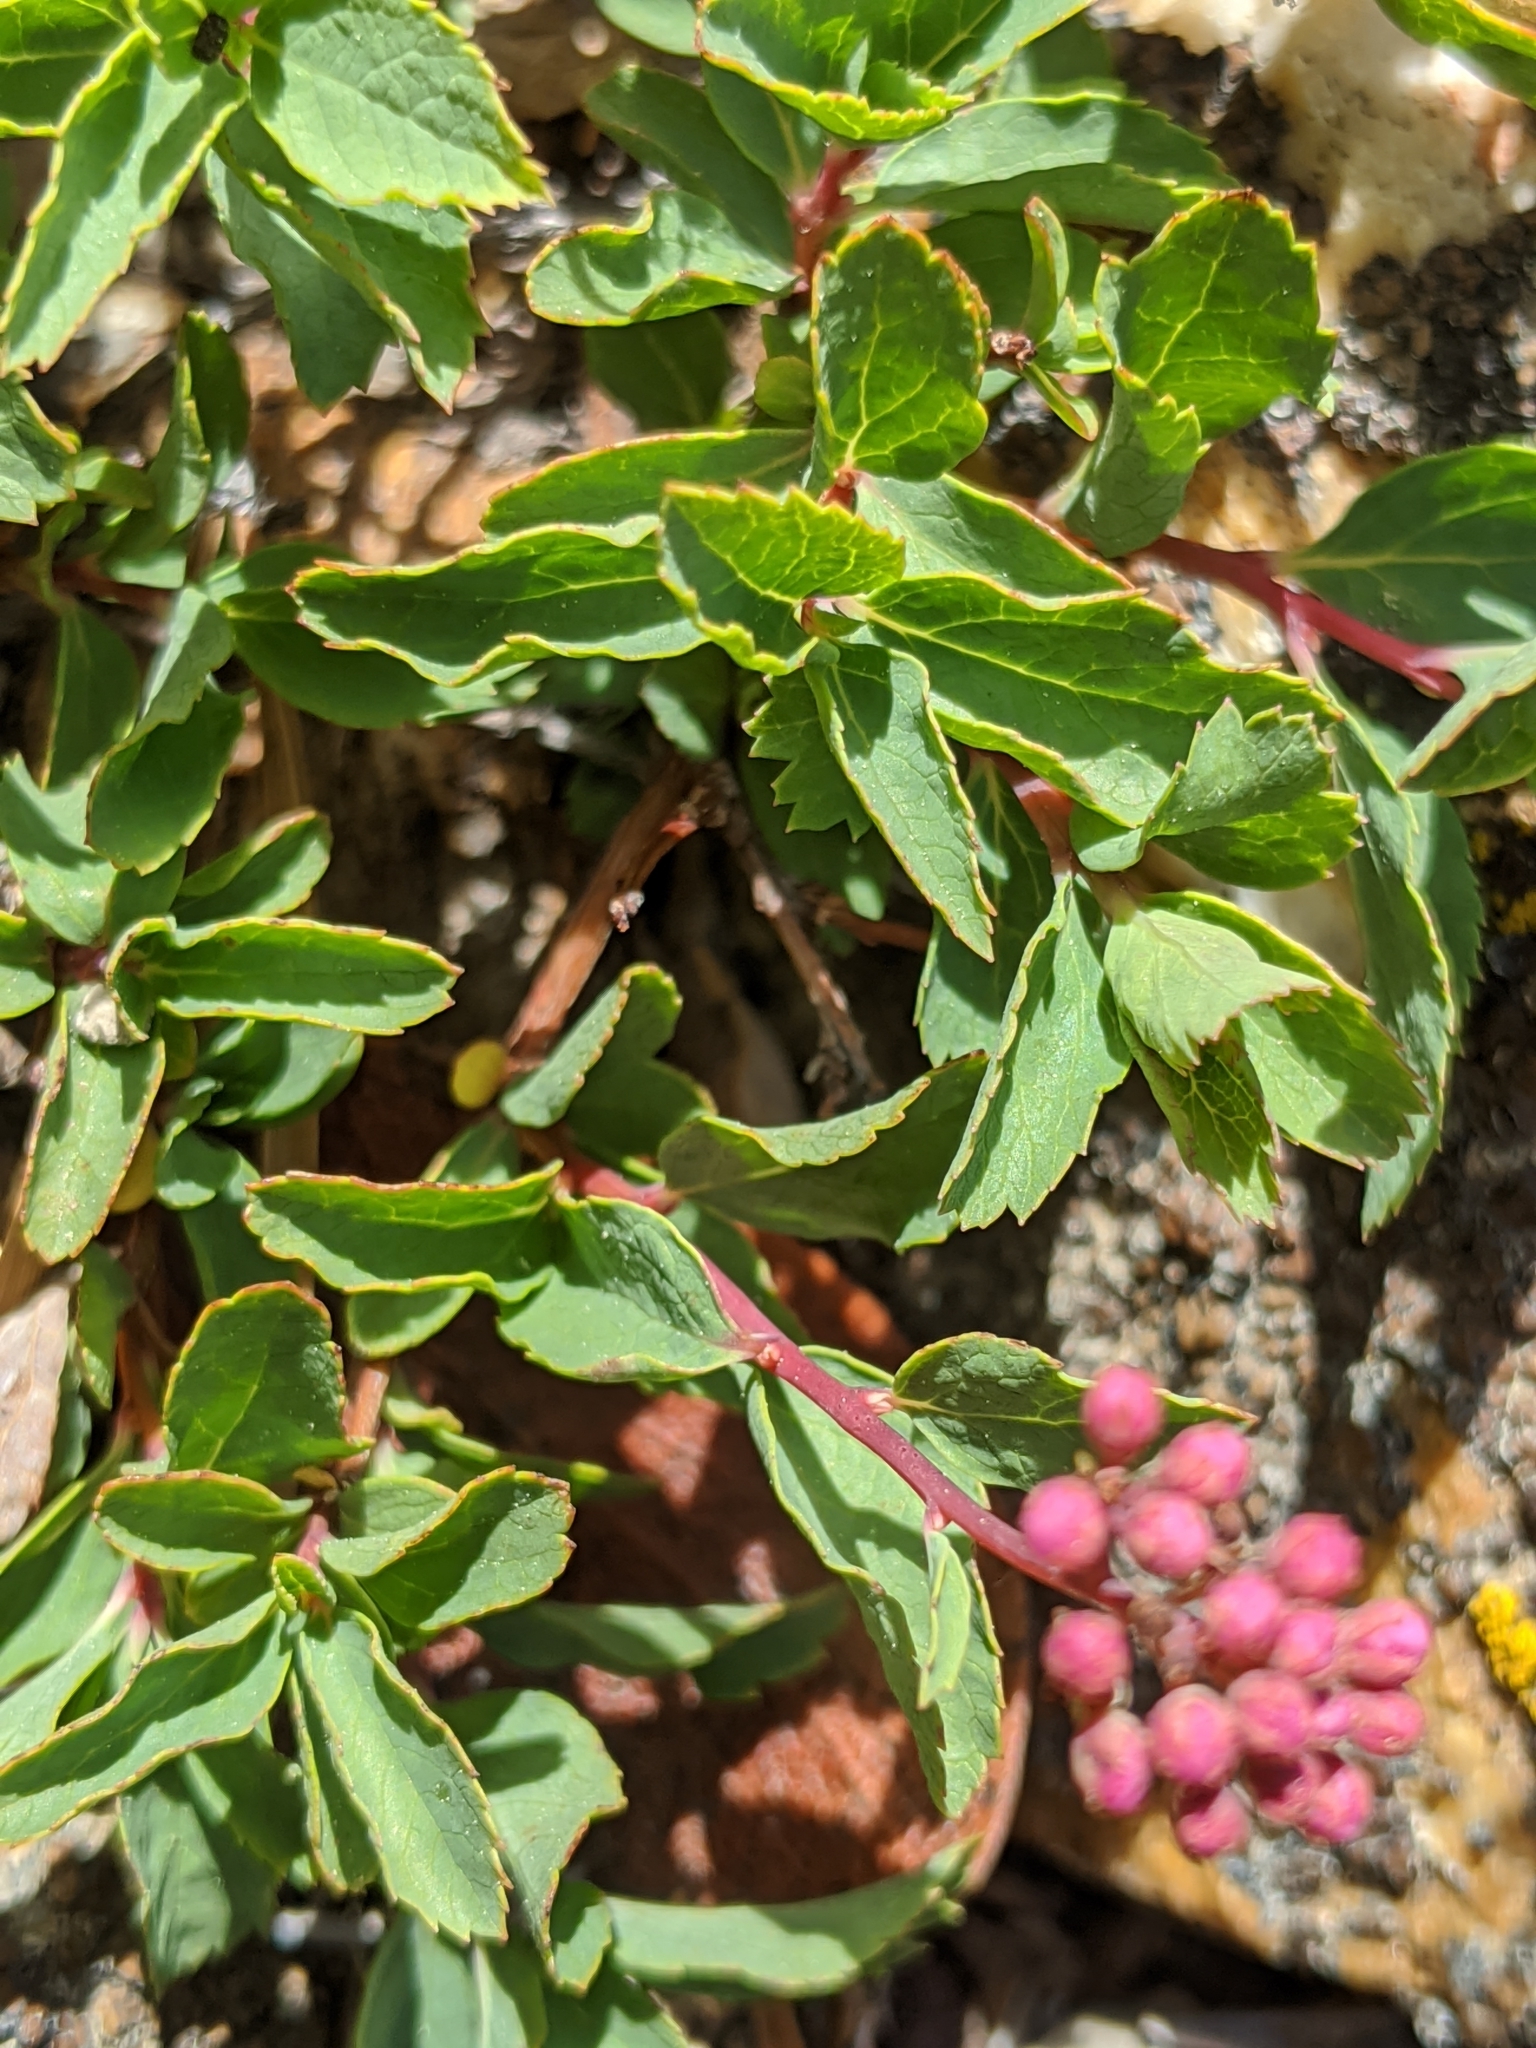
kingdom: Plantae
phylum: Tracheophyta
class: Magnoliopsida
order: Rosales
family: Rosaceae
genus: Spiraea
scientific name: Spiraea splendens
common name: Subalpine meadowsweet
